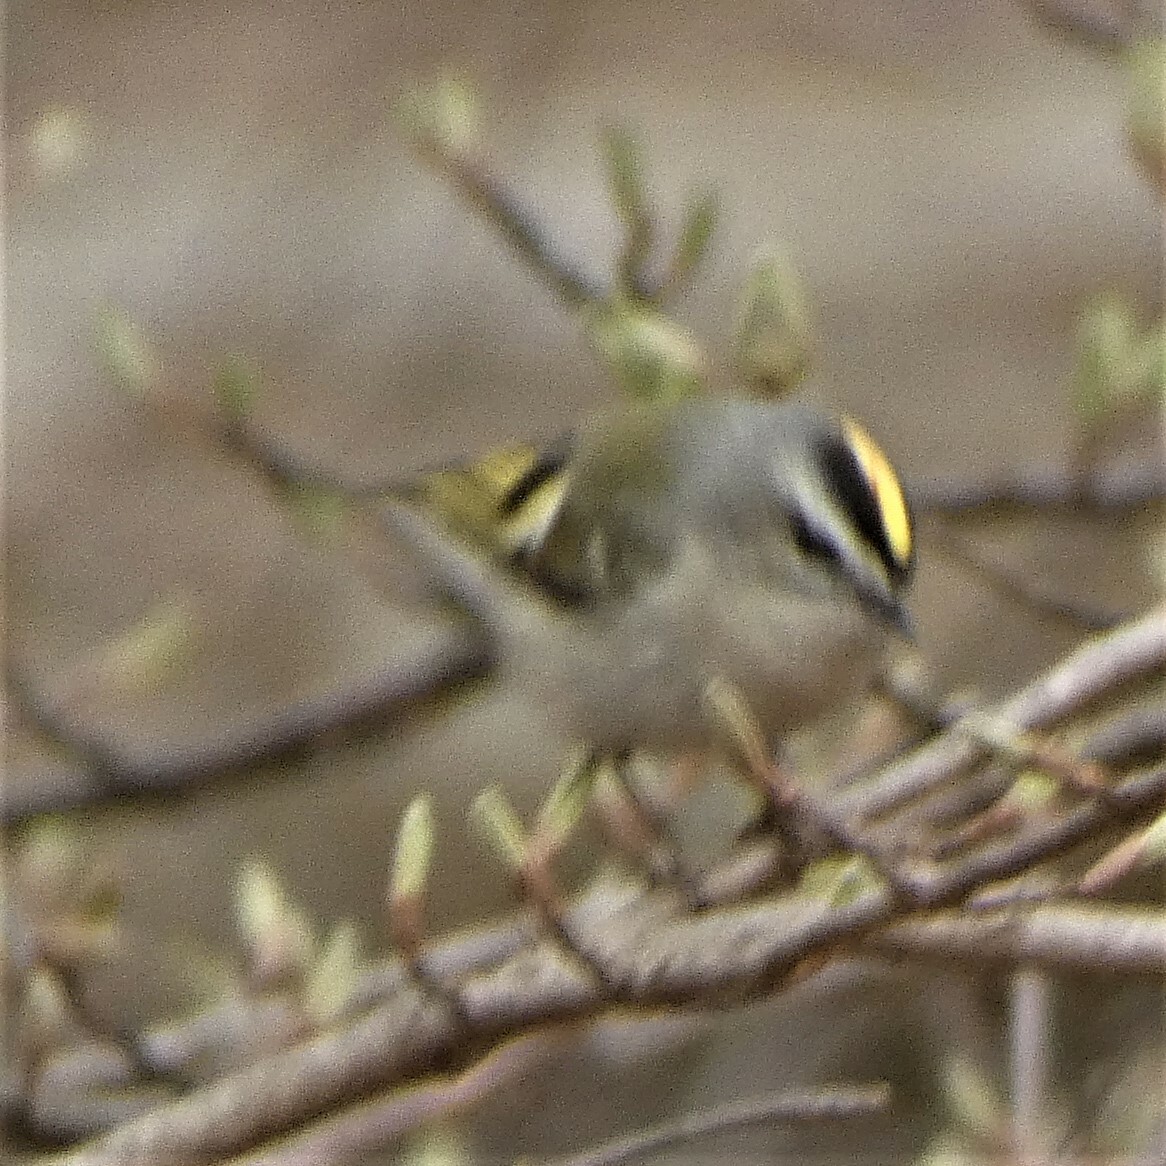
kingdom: Animalia
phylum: Chordata
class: Aves
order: Passeriformes
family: Regulidae
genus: Regulus
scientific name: Regulus satrapa
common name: Golden-crowned kinglet
